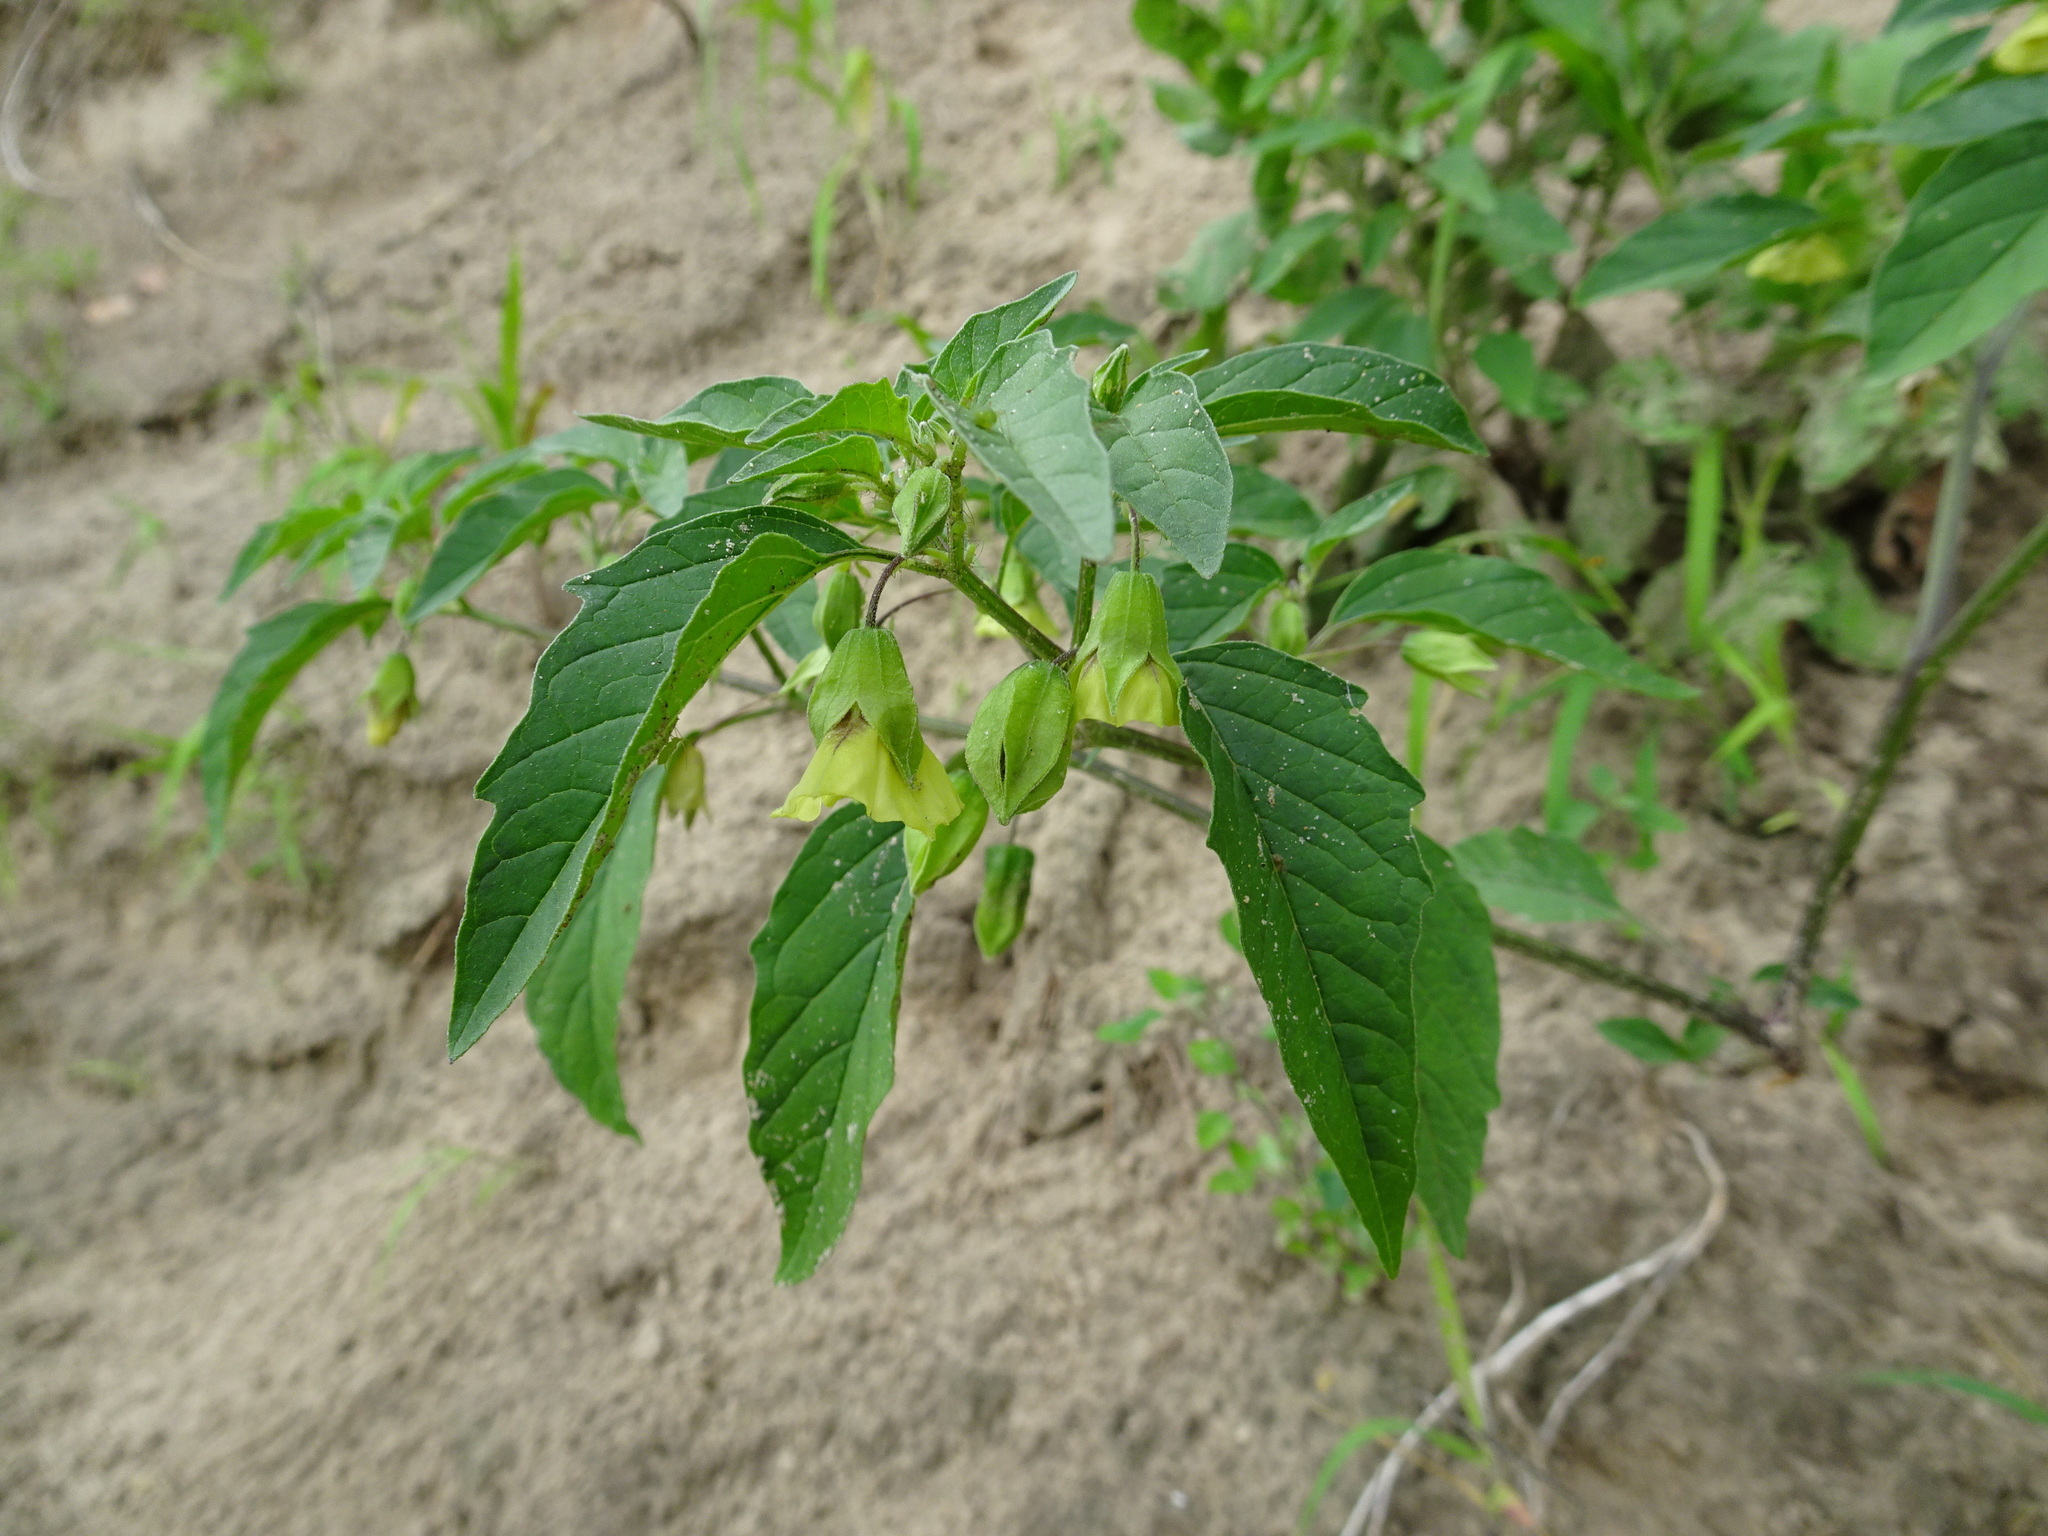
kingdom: Plantae
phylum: Tracheophyta
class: Magnoliopsida
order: Solanales
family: Solanaceae
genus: Physalis
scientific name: Physalis longifolia
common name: Common ground-cherry
